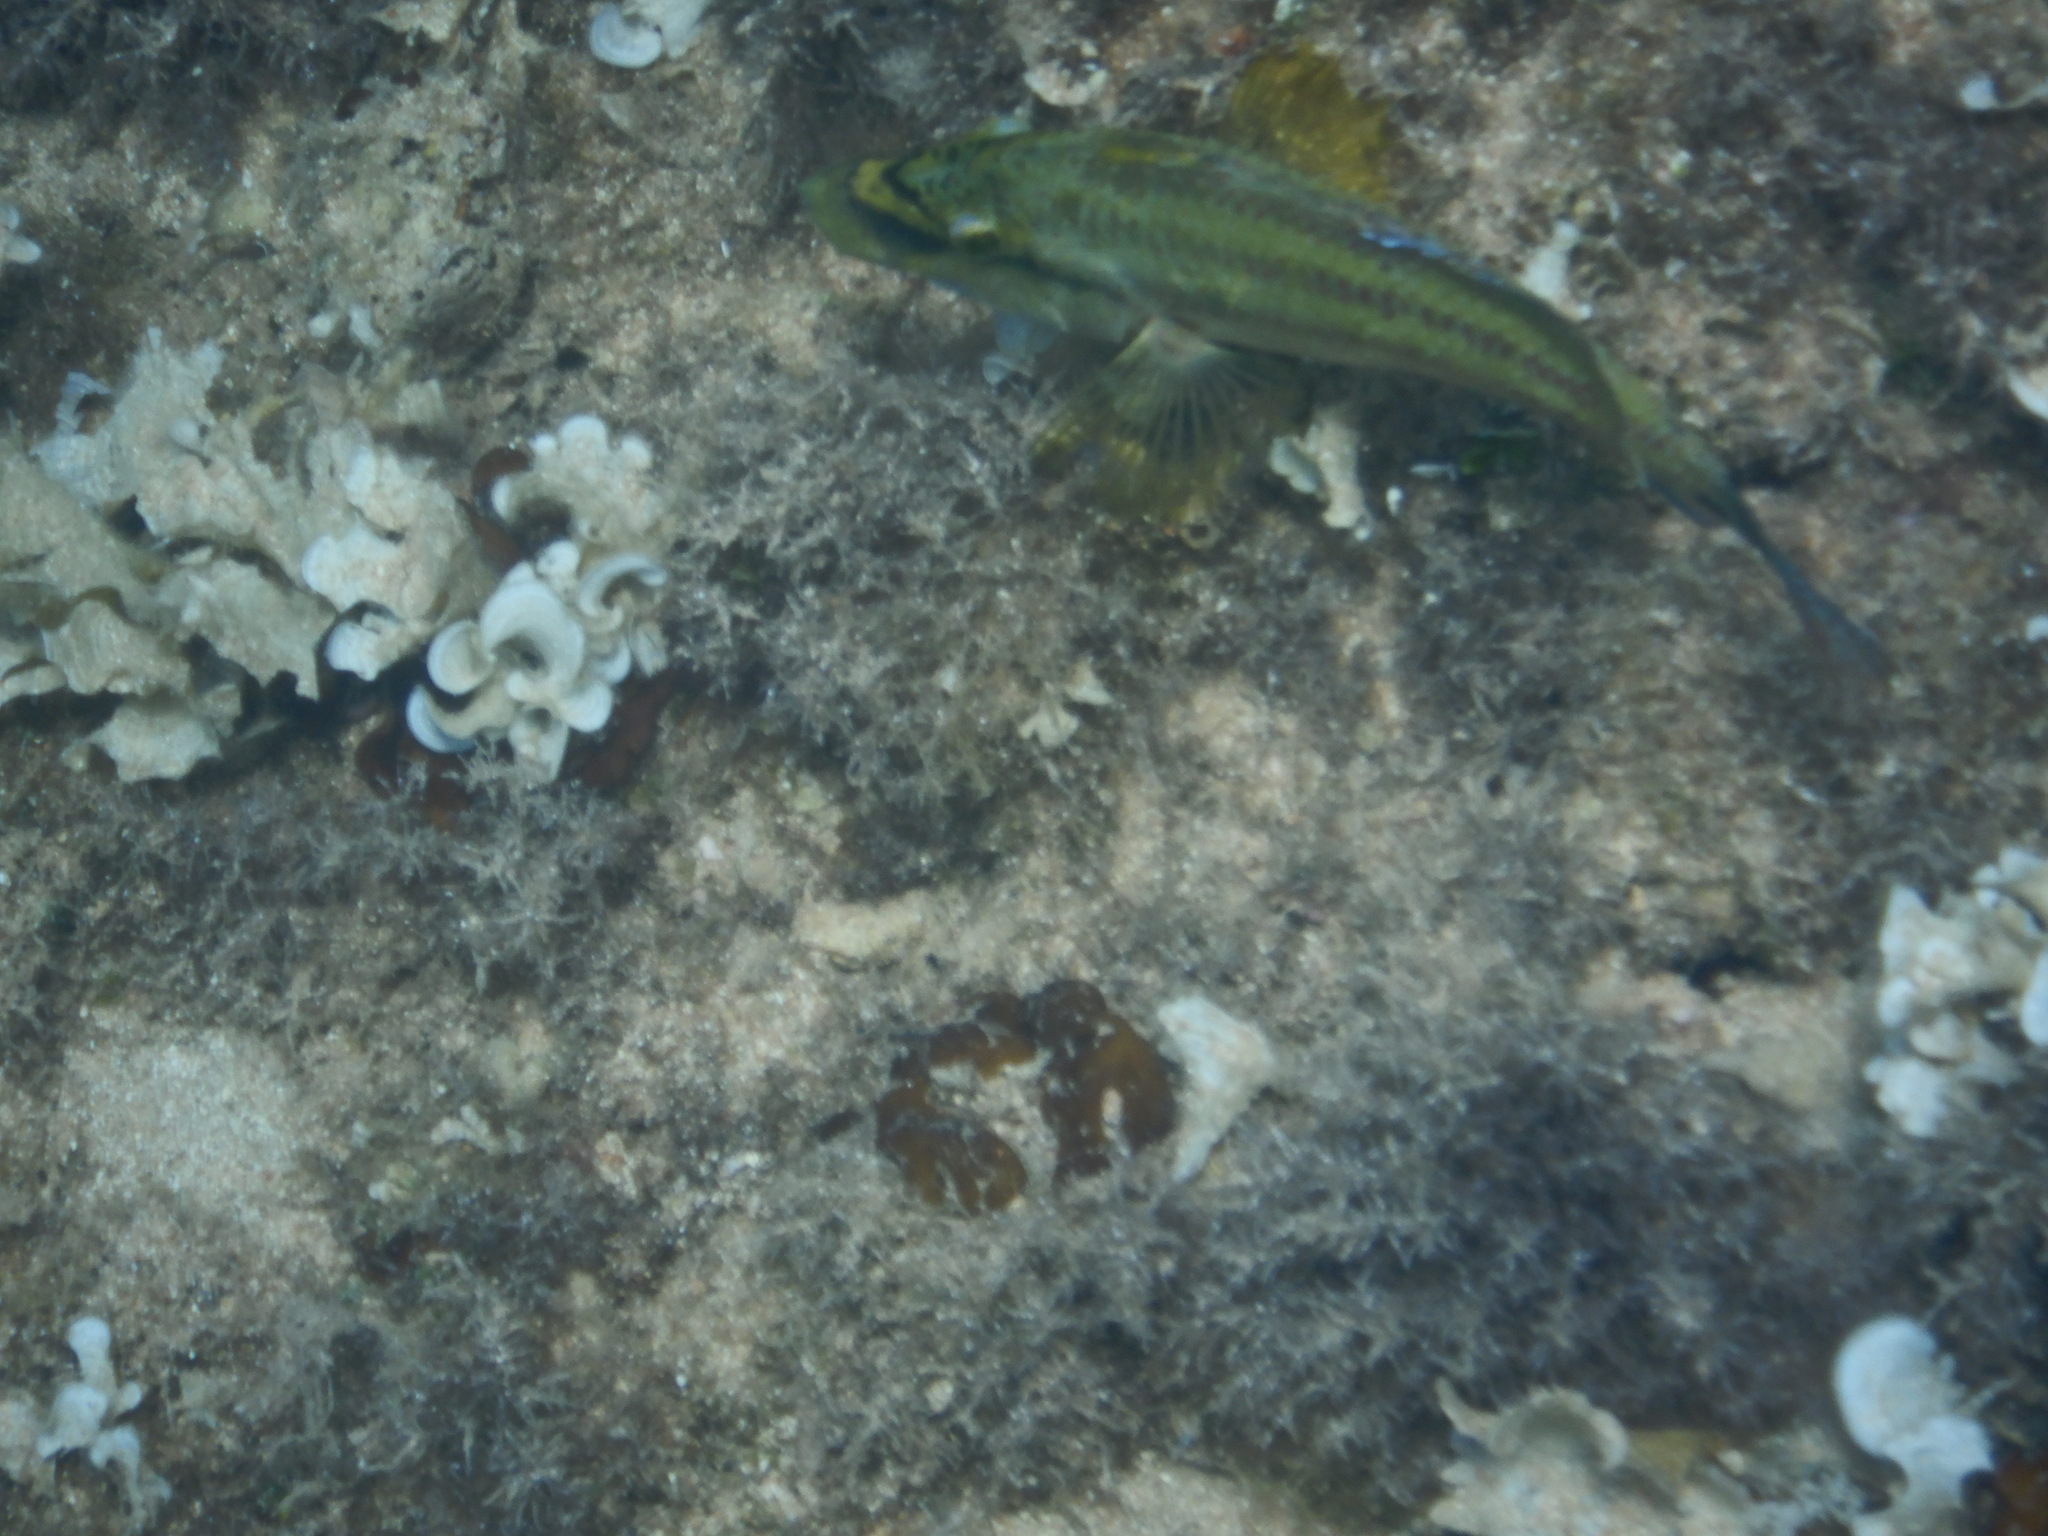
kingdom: Animalia
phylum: Chordata
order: Perciformes
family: Labridae
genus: Symphodus
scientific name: Symphodus tinca
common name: Peacock wrasse
